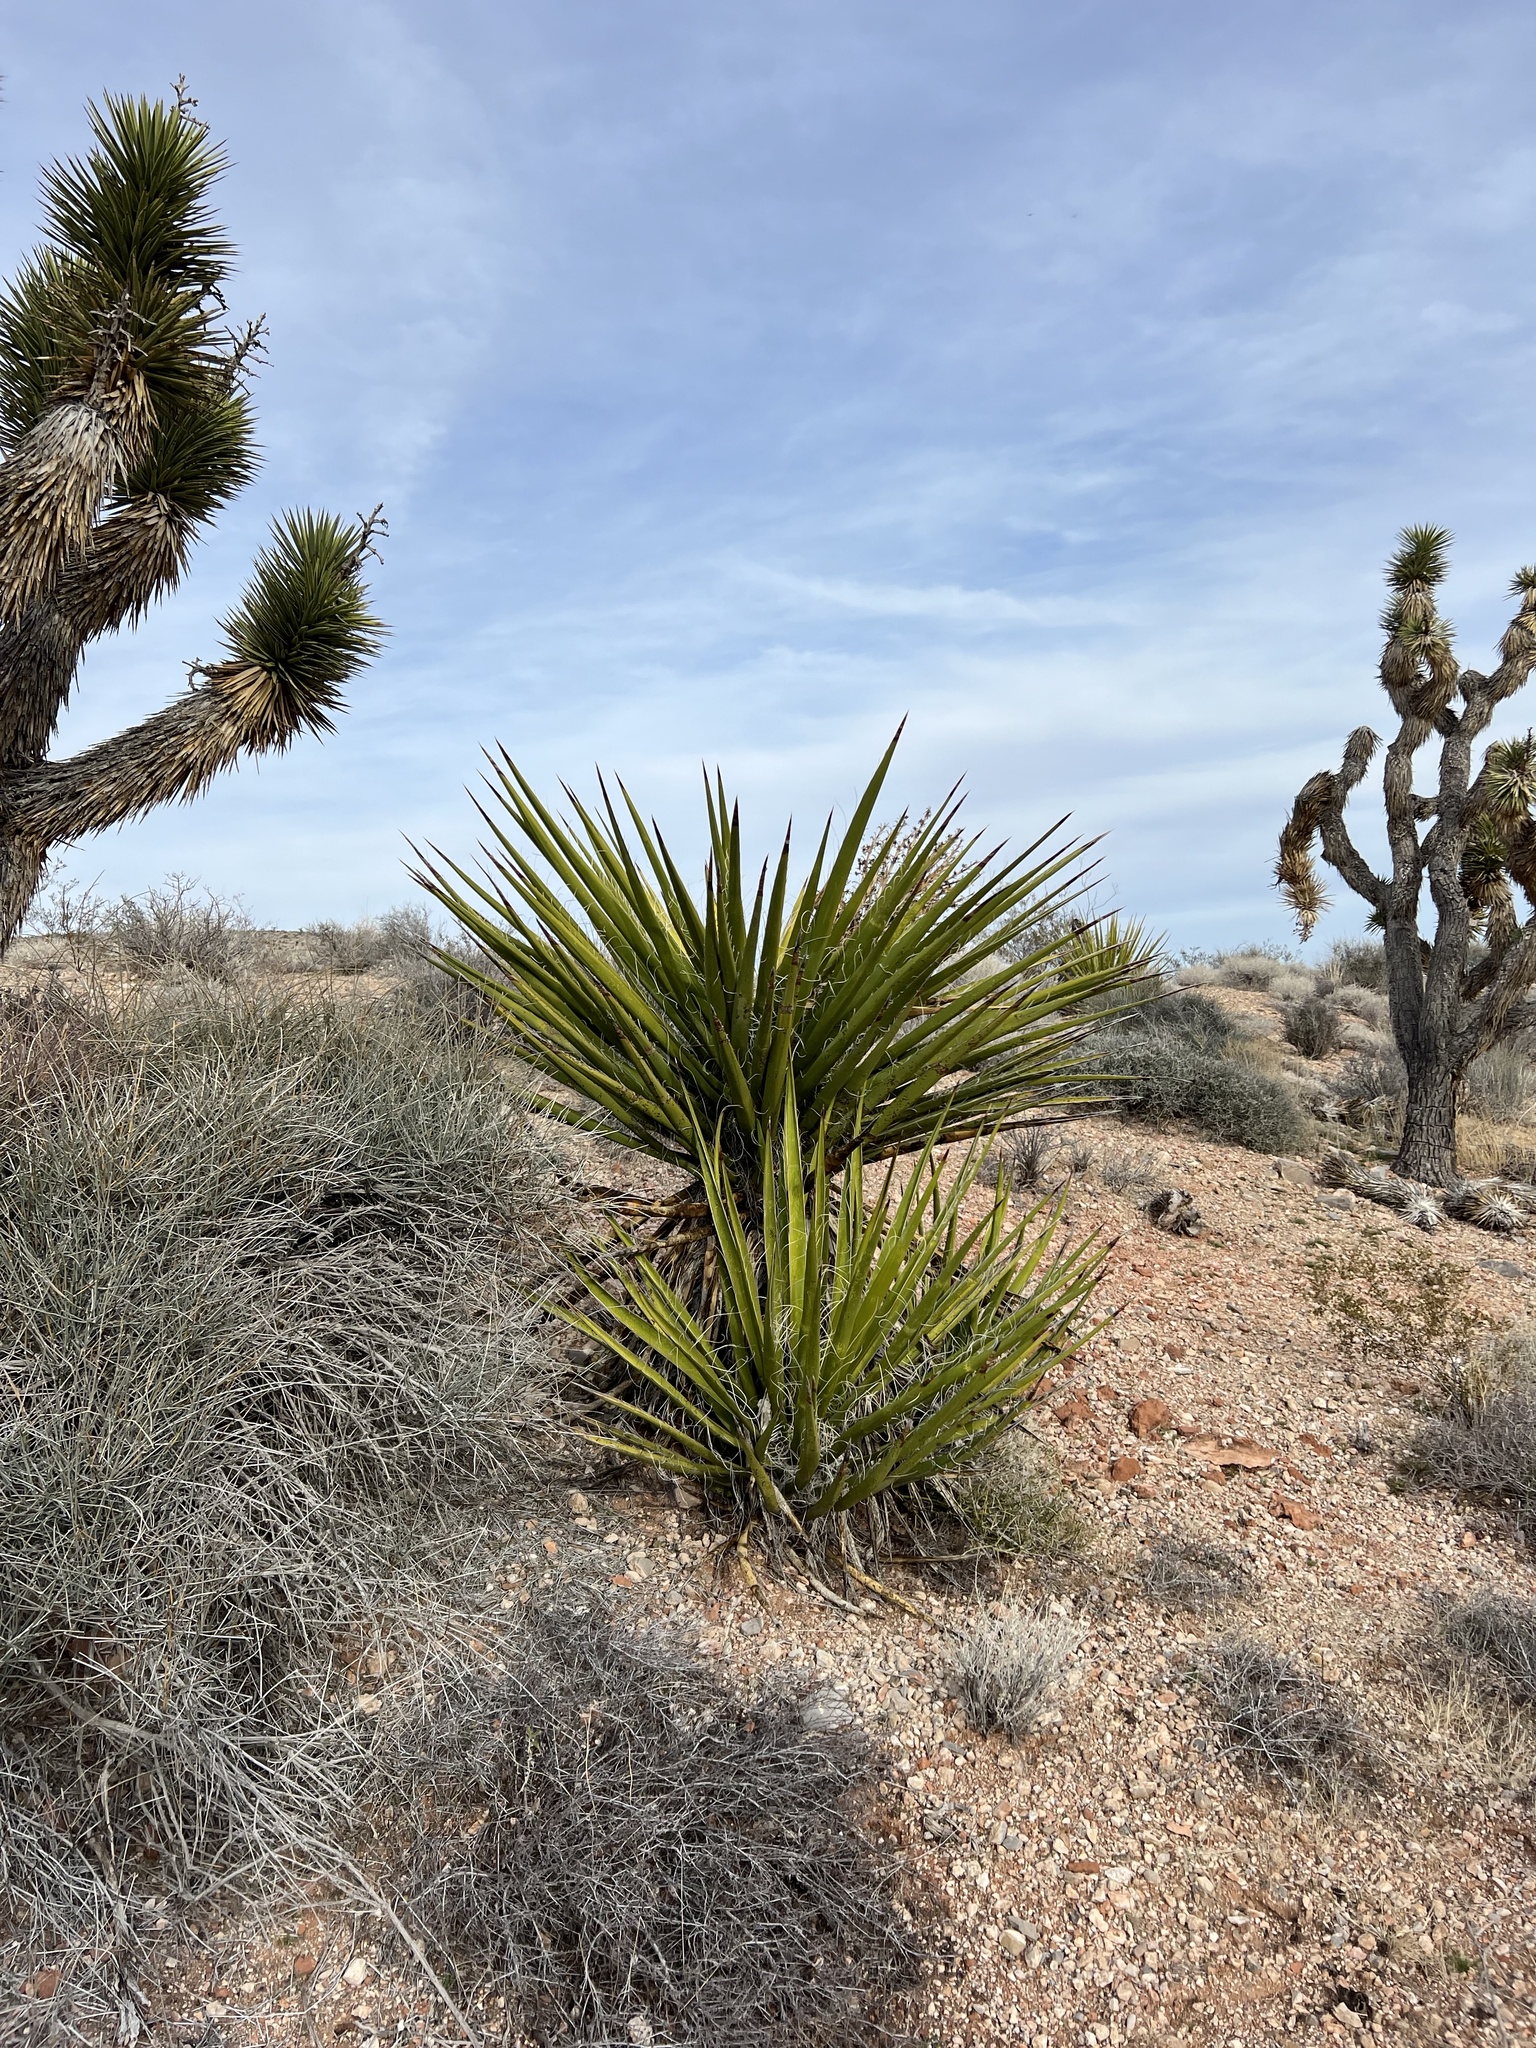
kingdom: Plantae
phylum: Tracheophyta
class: Liliopsida
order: Asparagales
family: Asparagaceae
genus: Yucca
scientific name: Yucca schidigera
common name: Mojave yucca
